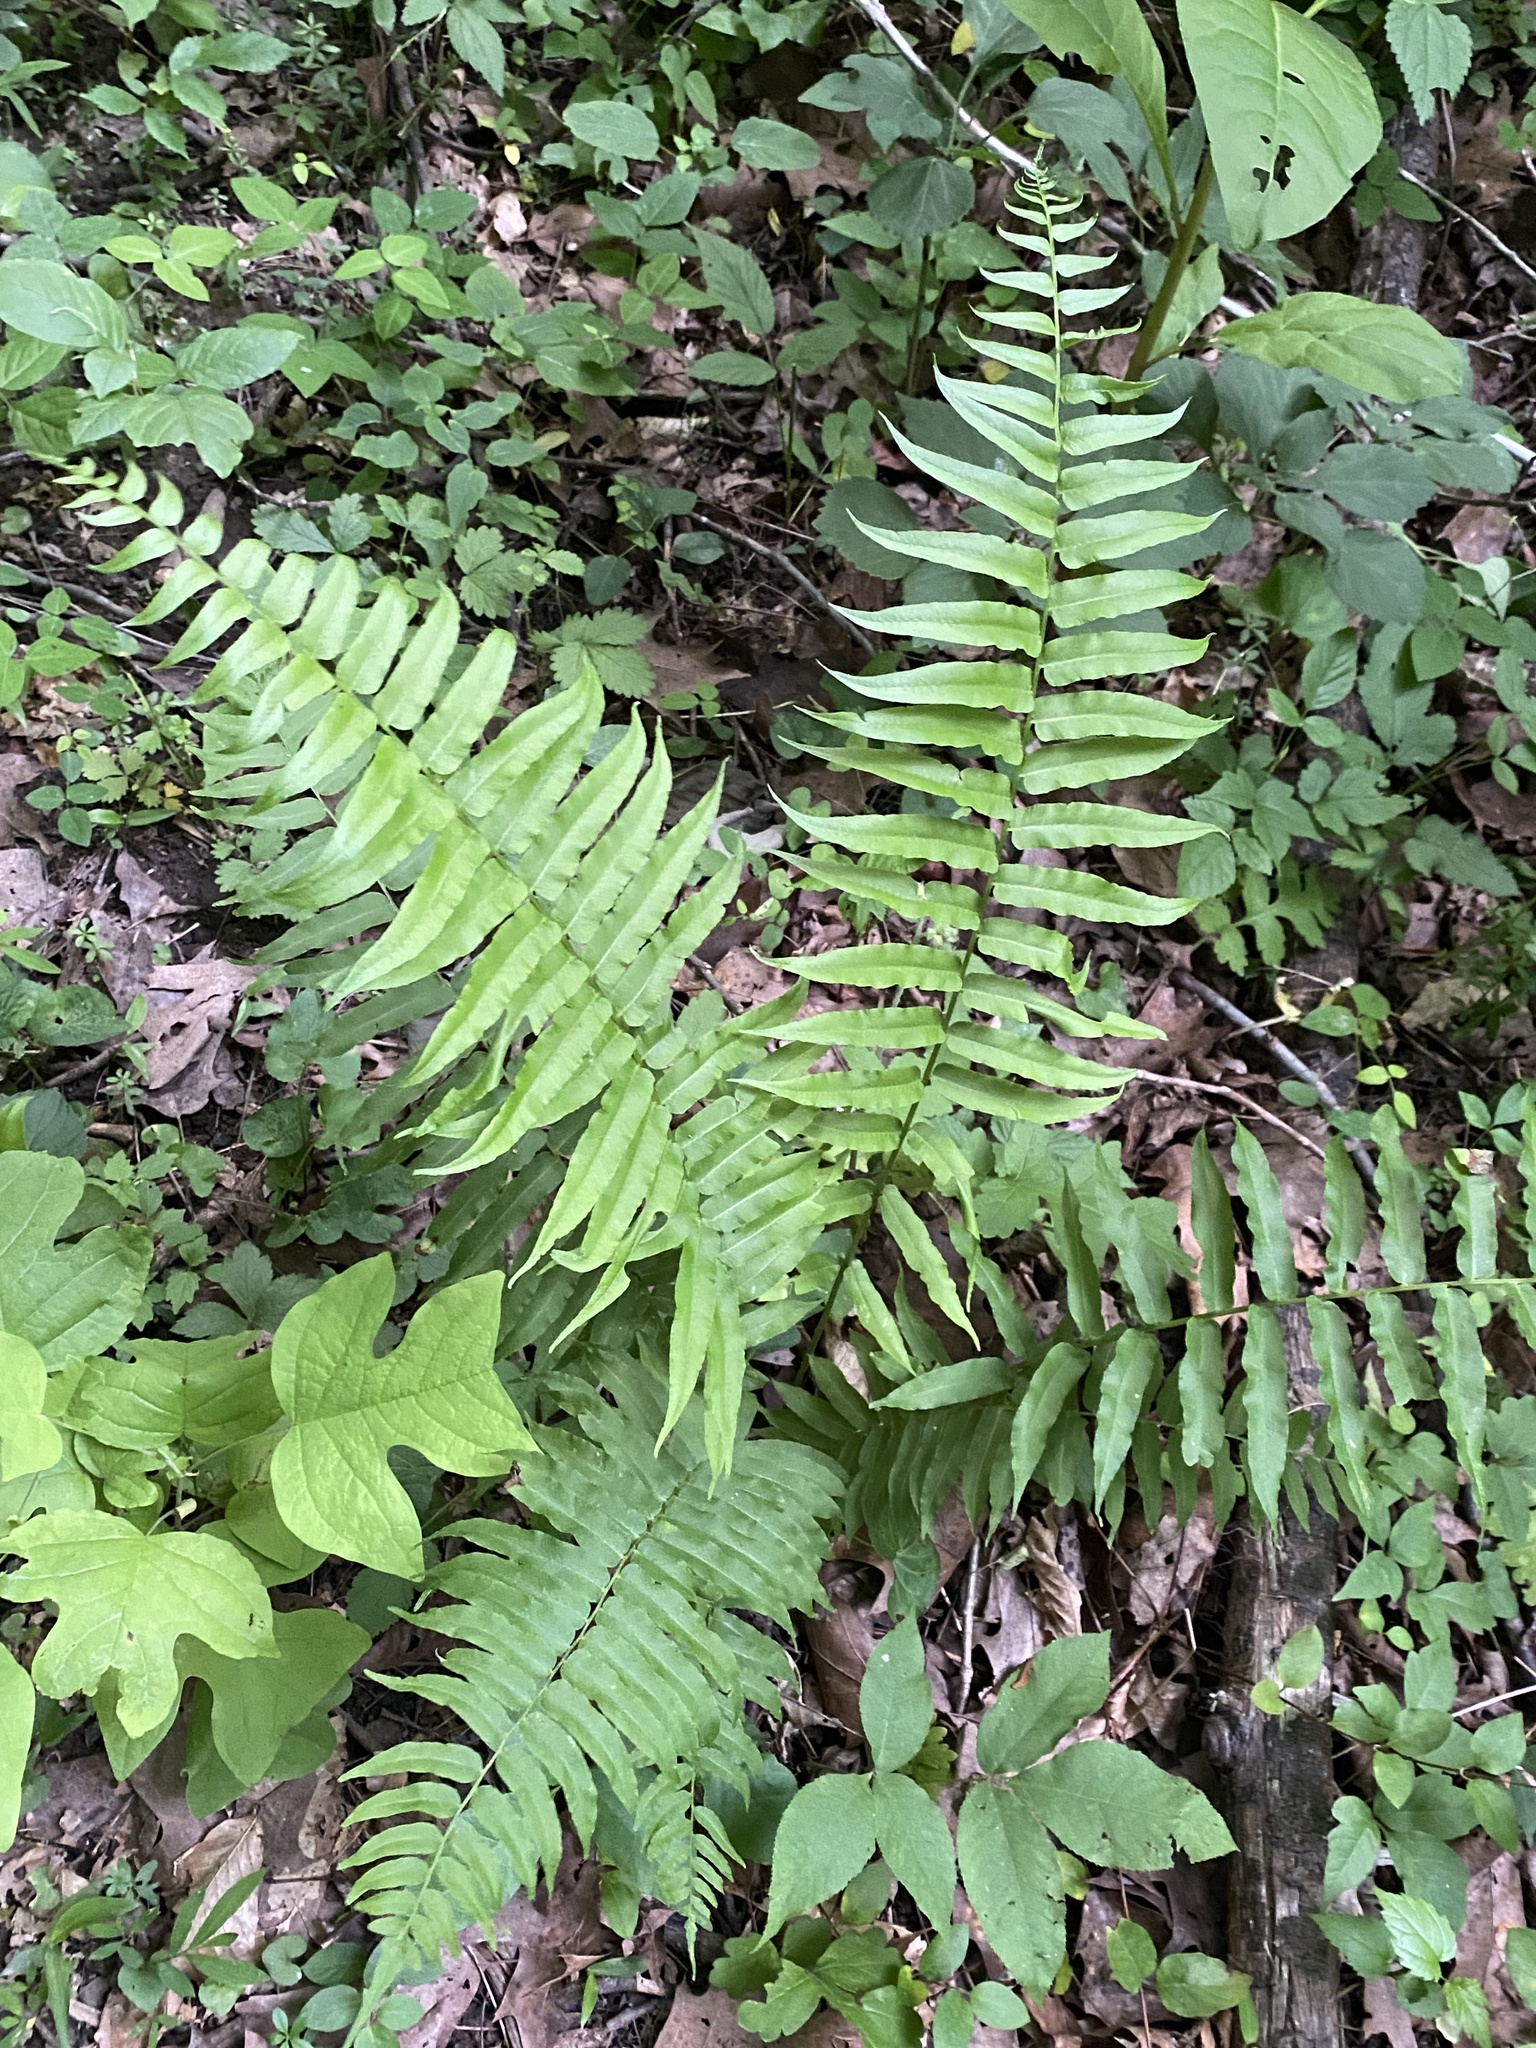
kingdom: Plantae
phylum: Tracheophyta
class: Polypodiopsida
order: Polypodiales
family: Diplaziopsidaceae
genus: Homalosorus
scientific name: Homalosorus pycnocarpos
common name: Glade fern
